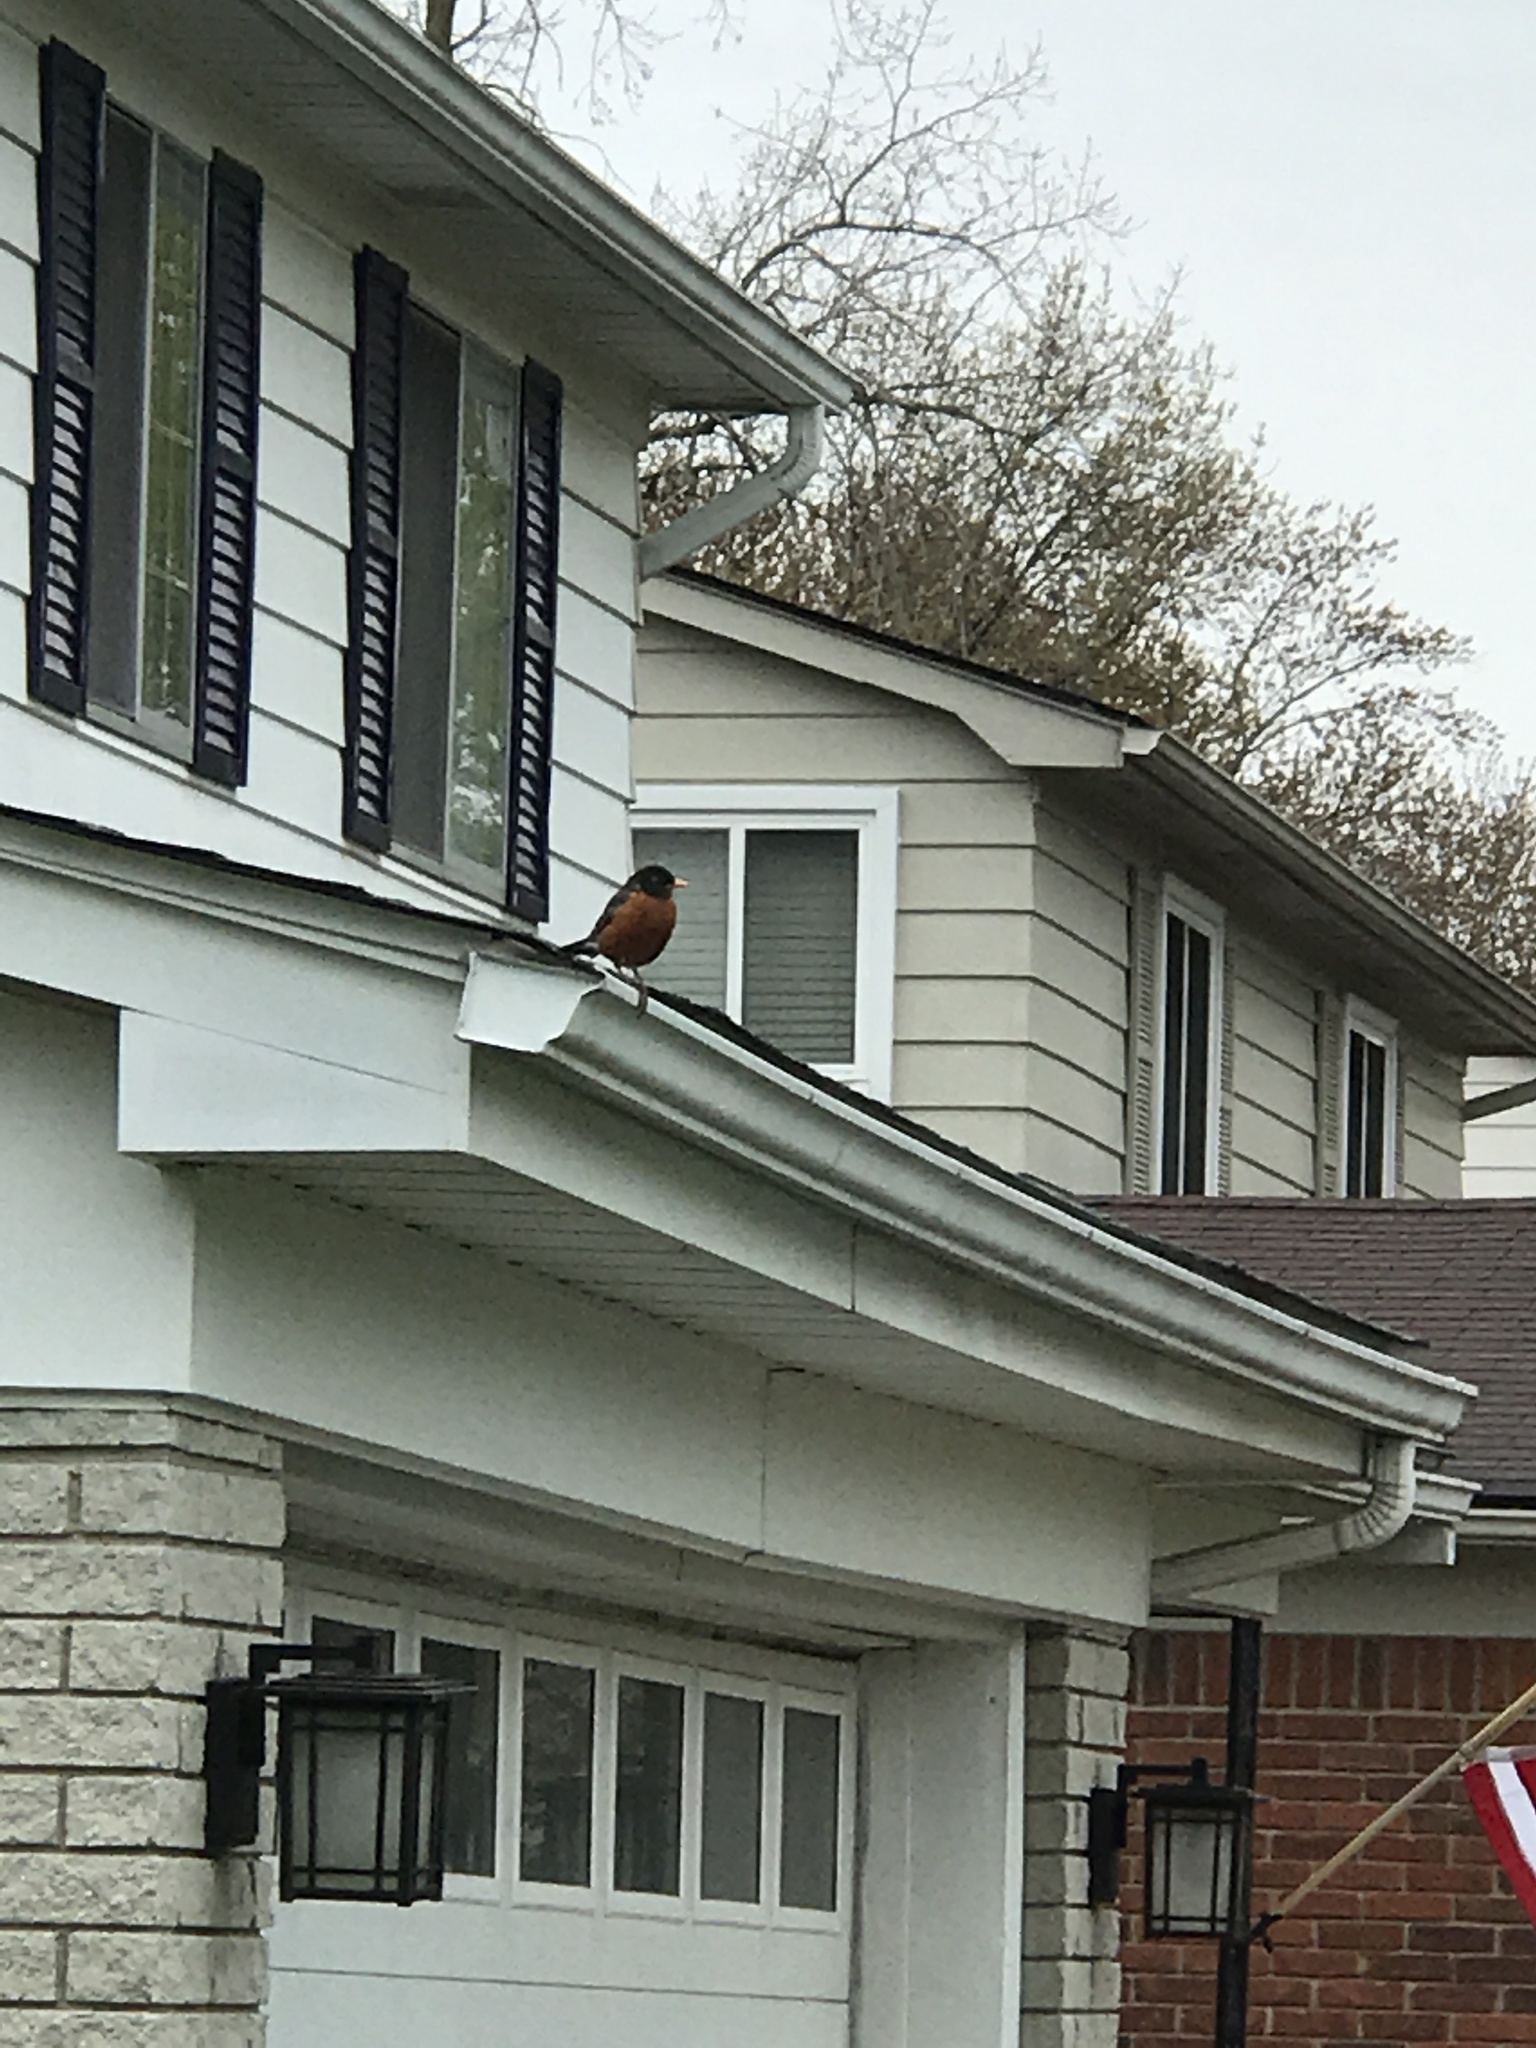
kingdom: Animalia
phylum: Chordata
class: Aves
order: Passeriformes
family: Turdidae
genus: Turdus
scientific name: Turdus migratorius
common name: American robin
